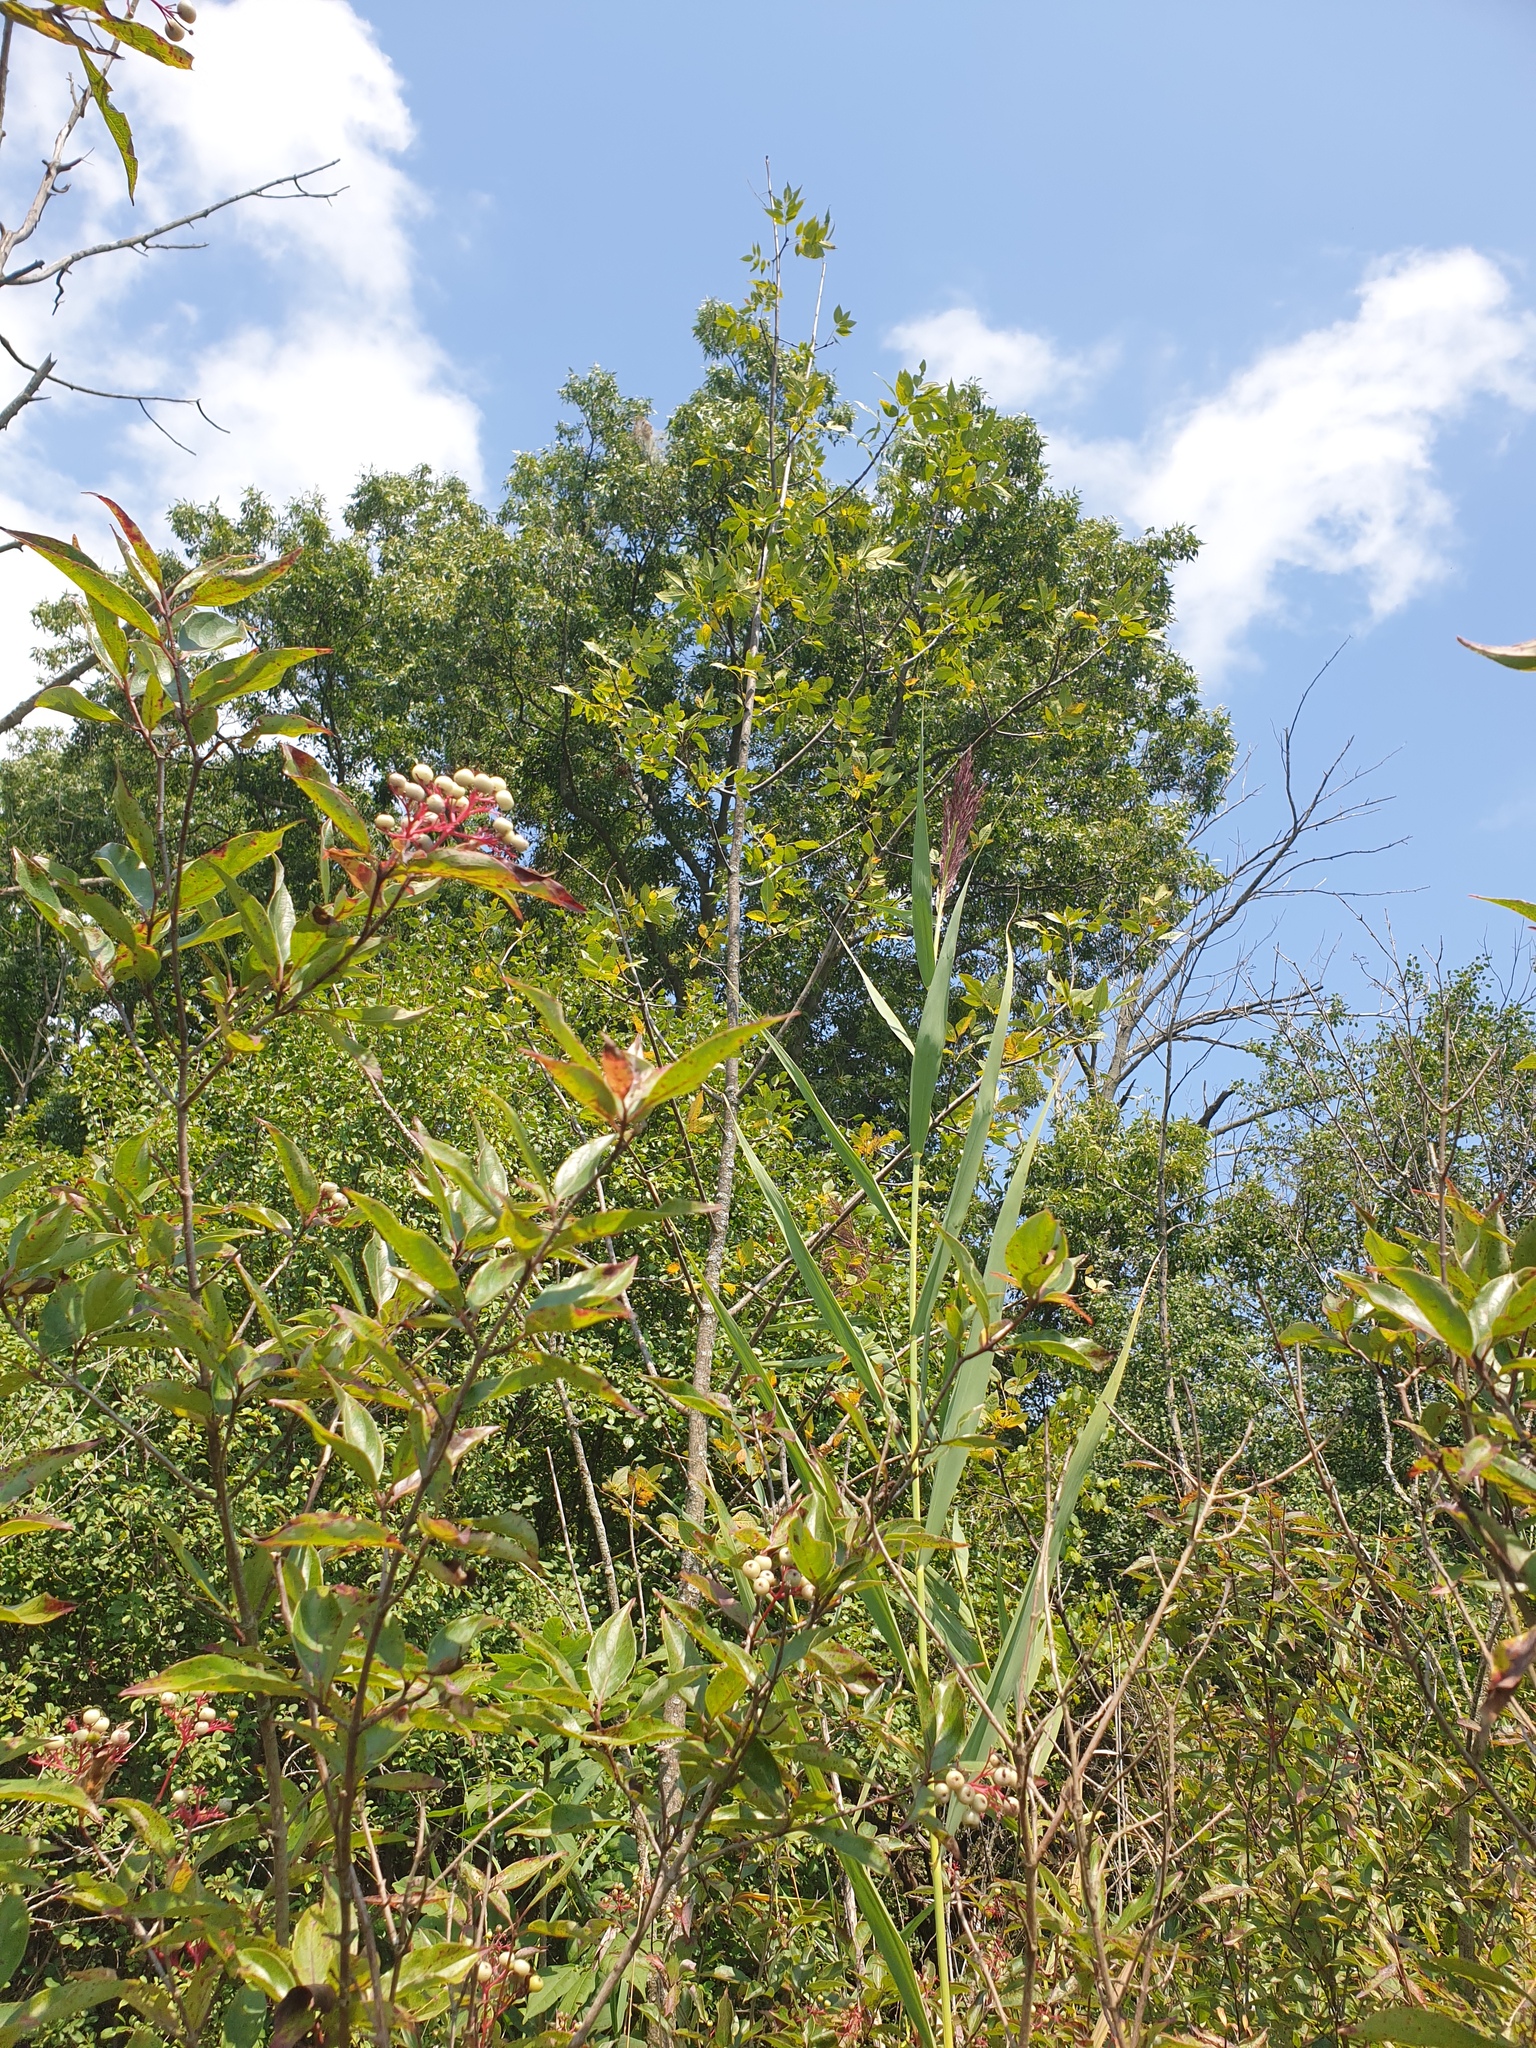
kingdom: Plantae
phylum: Tracheophyta
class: Magnoliopsida
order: Cornales
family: Cornaceae
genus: Cornus
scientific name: Cornus racemosa
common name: Panicled dogwood
